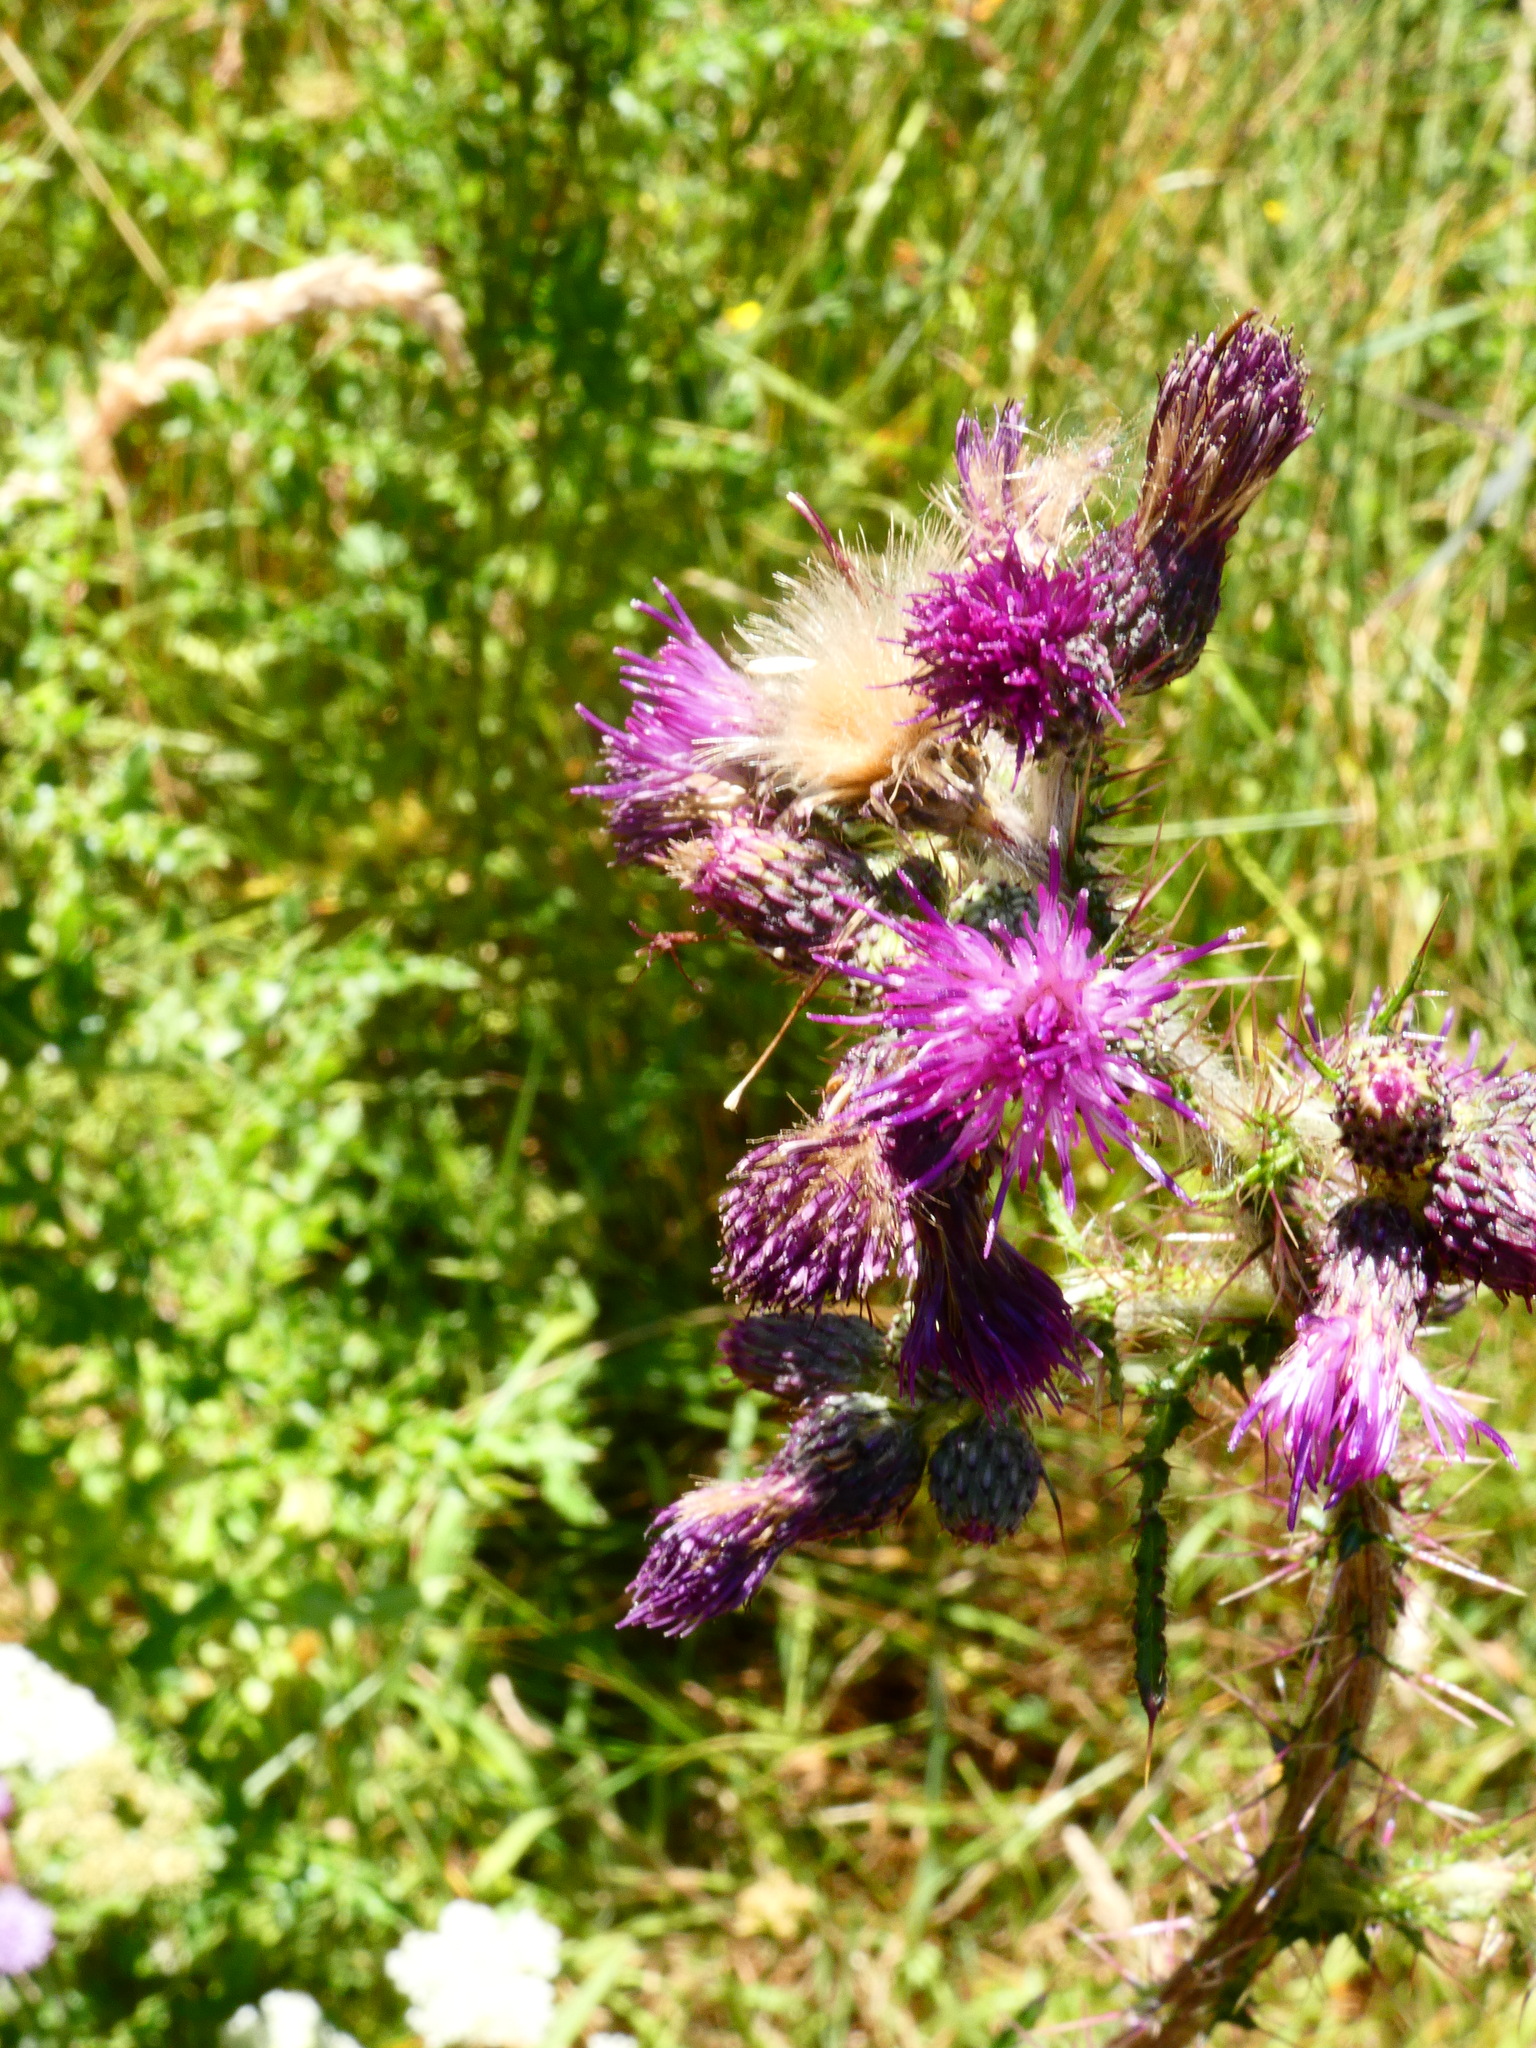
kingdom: Plantae
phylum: Tracheophyta
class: Magnoliopsida
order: Asterales
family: Asteraceae
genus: Cirsium
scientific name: Cirsium palustre
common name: Marsh thistle
